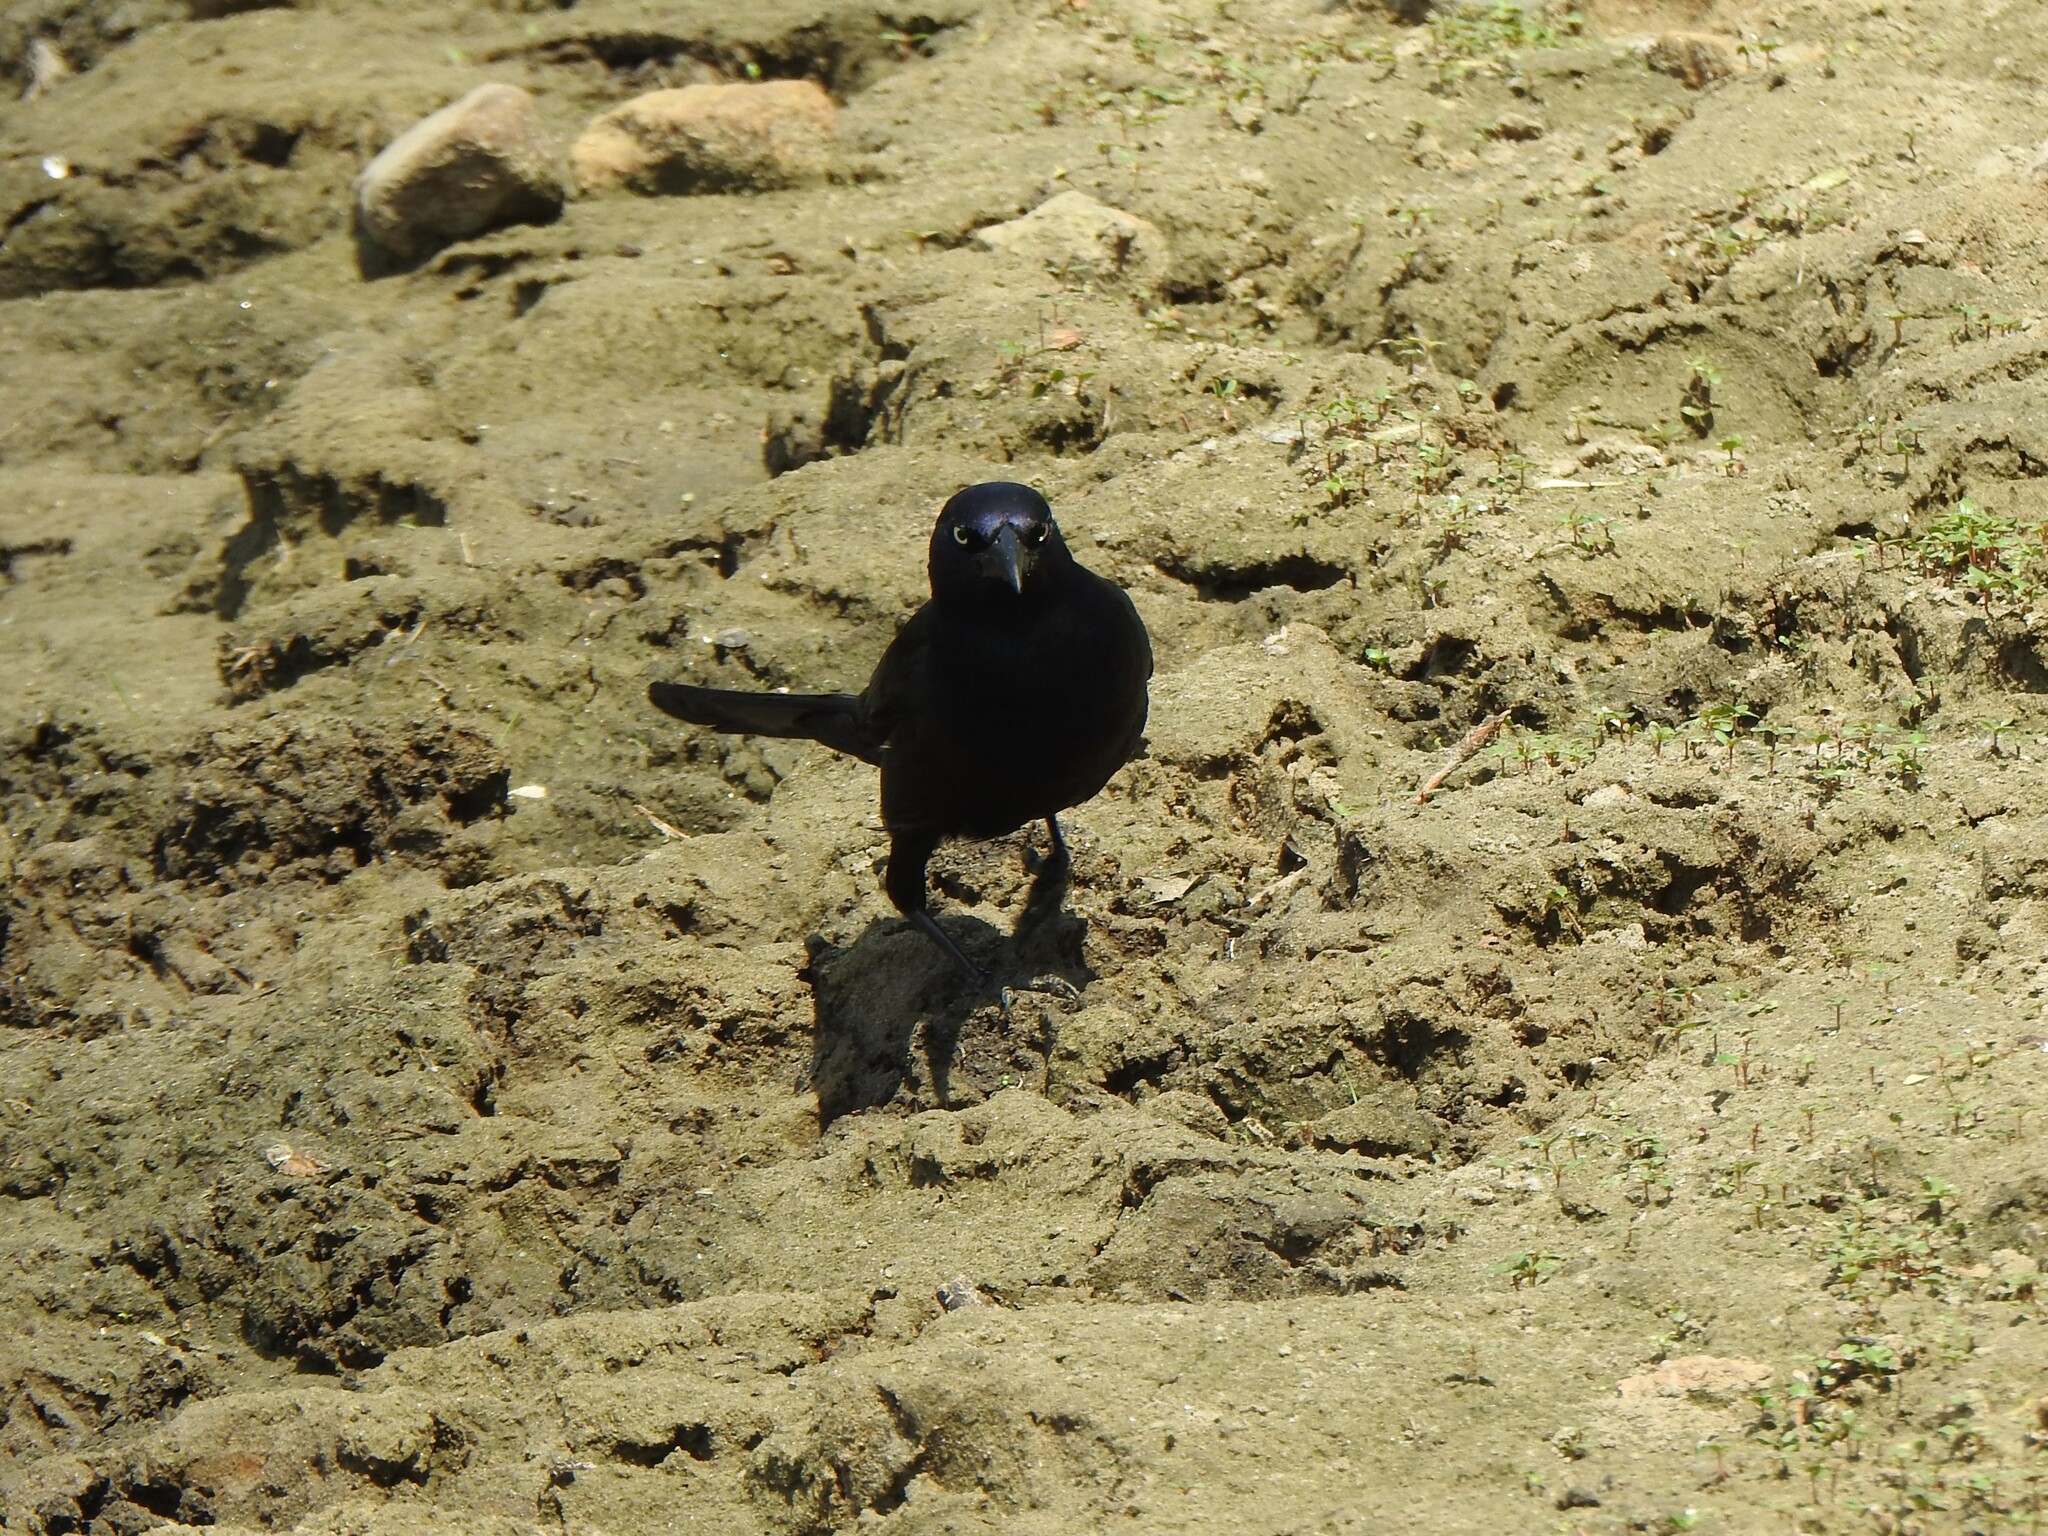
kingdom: Animalia
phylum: Chordata
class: Aves
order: Passeriformes
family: Icteridae
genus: Quiscalus
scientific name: Quiscalus quiscula
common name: Common grackle
